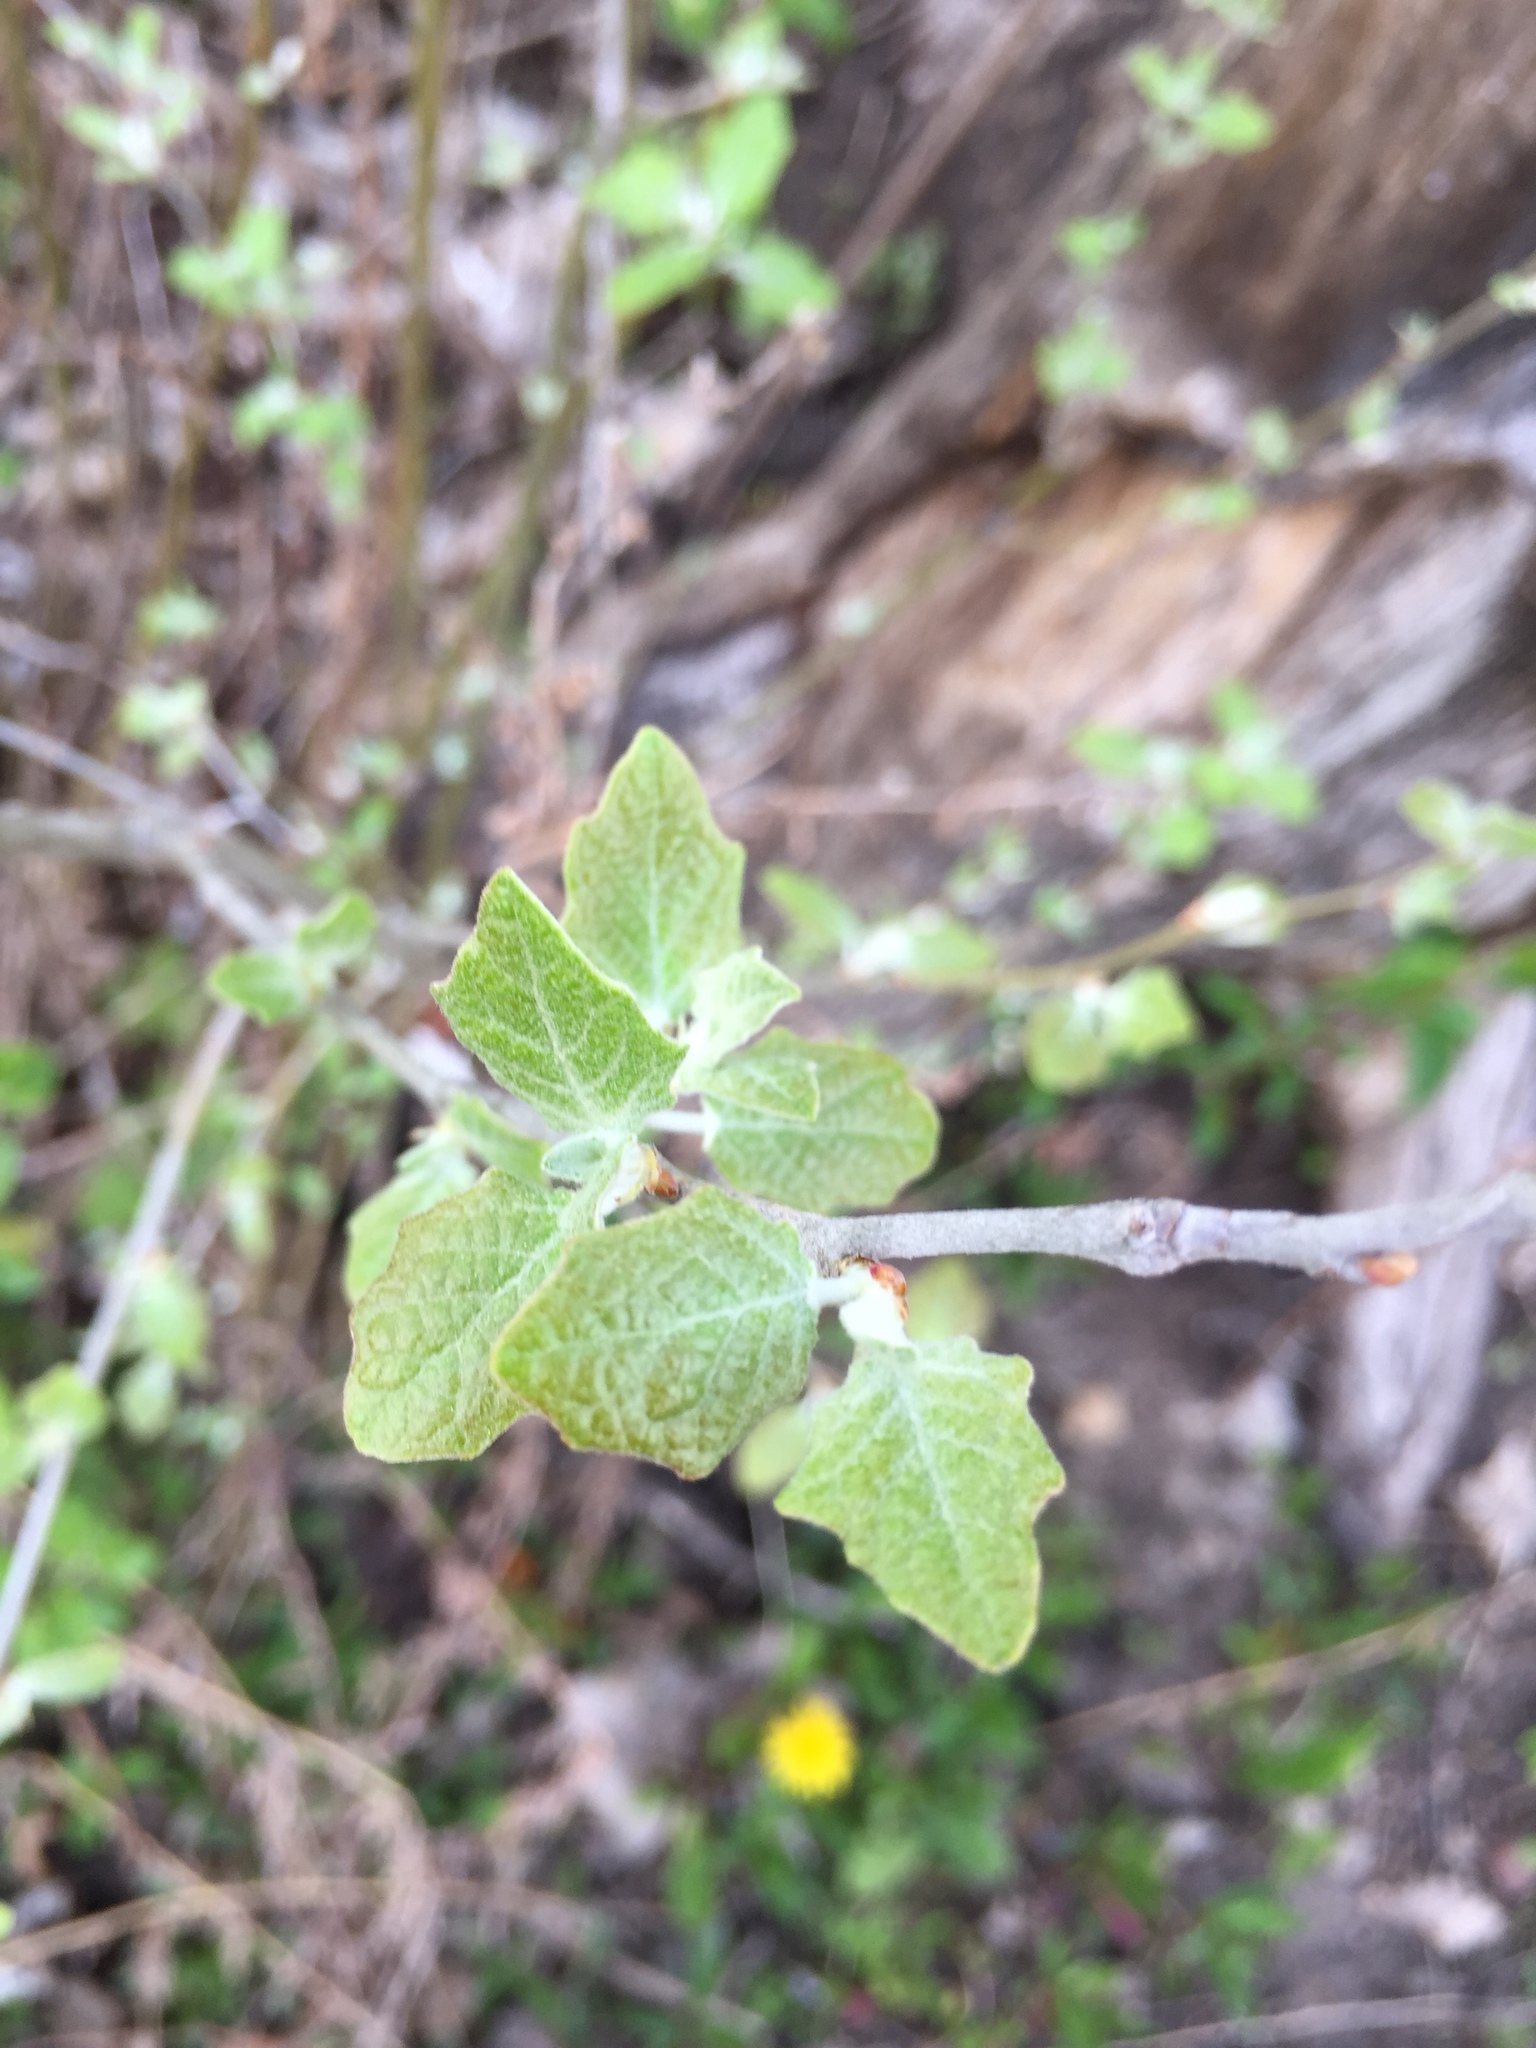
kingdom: Plantae
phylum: Tracheophyta
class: Magnoliopsida
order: Malpighiales
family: Salicaceae
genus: Populus
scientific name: Populus alba
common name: White poplar
